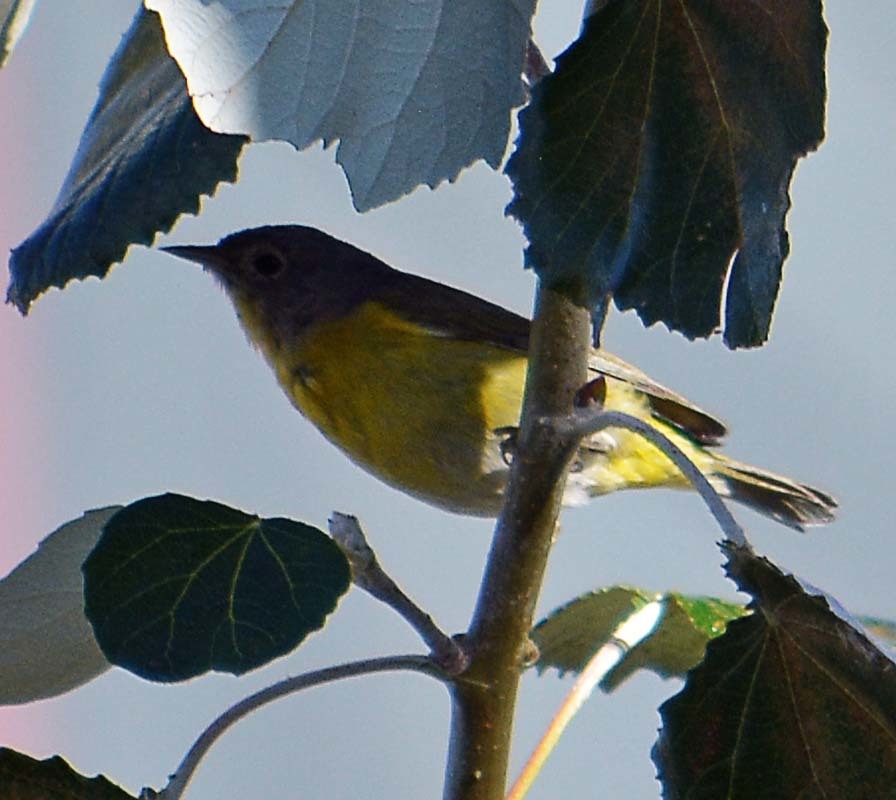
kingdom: Animalia
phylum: Chordata
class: Aves
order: Passeriformes
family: Parulidae
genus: Leiothlypis
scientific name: Leiothlypis ruficapilla
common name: Nashville warbler
